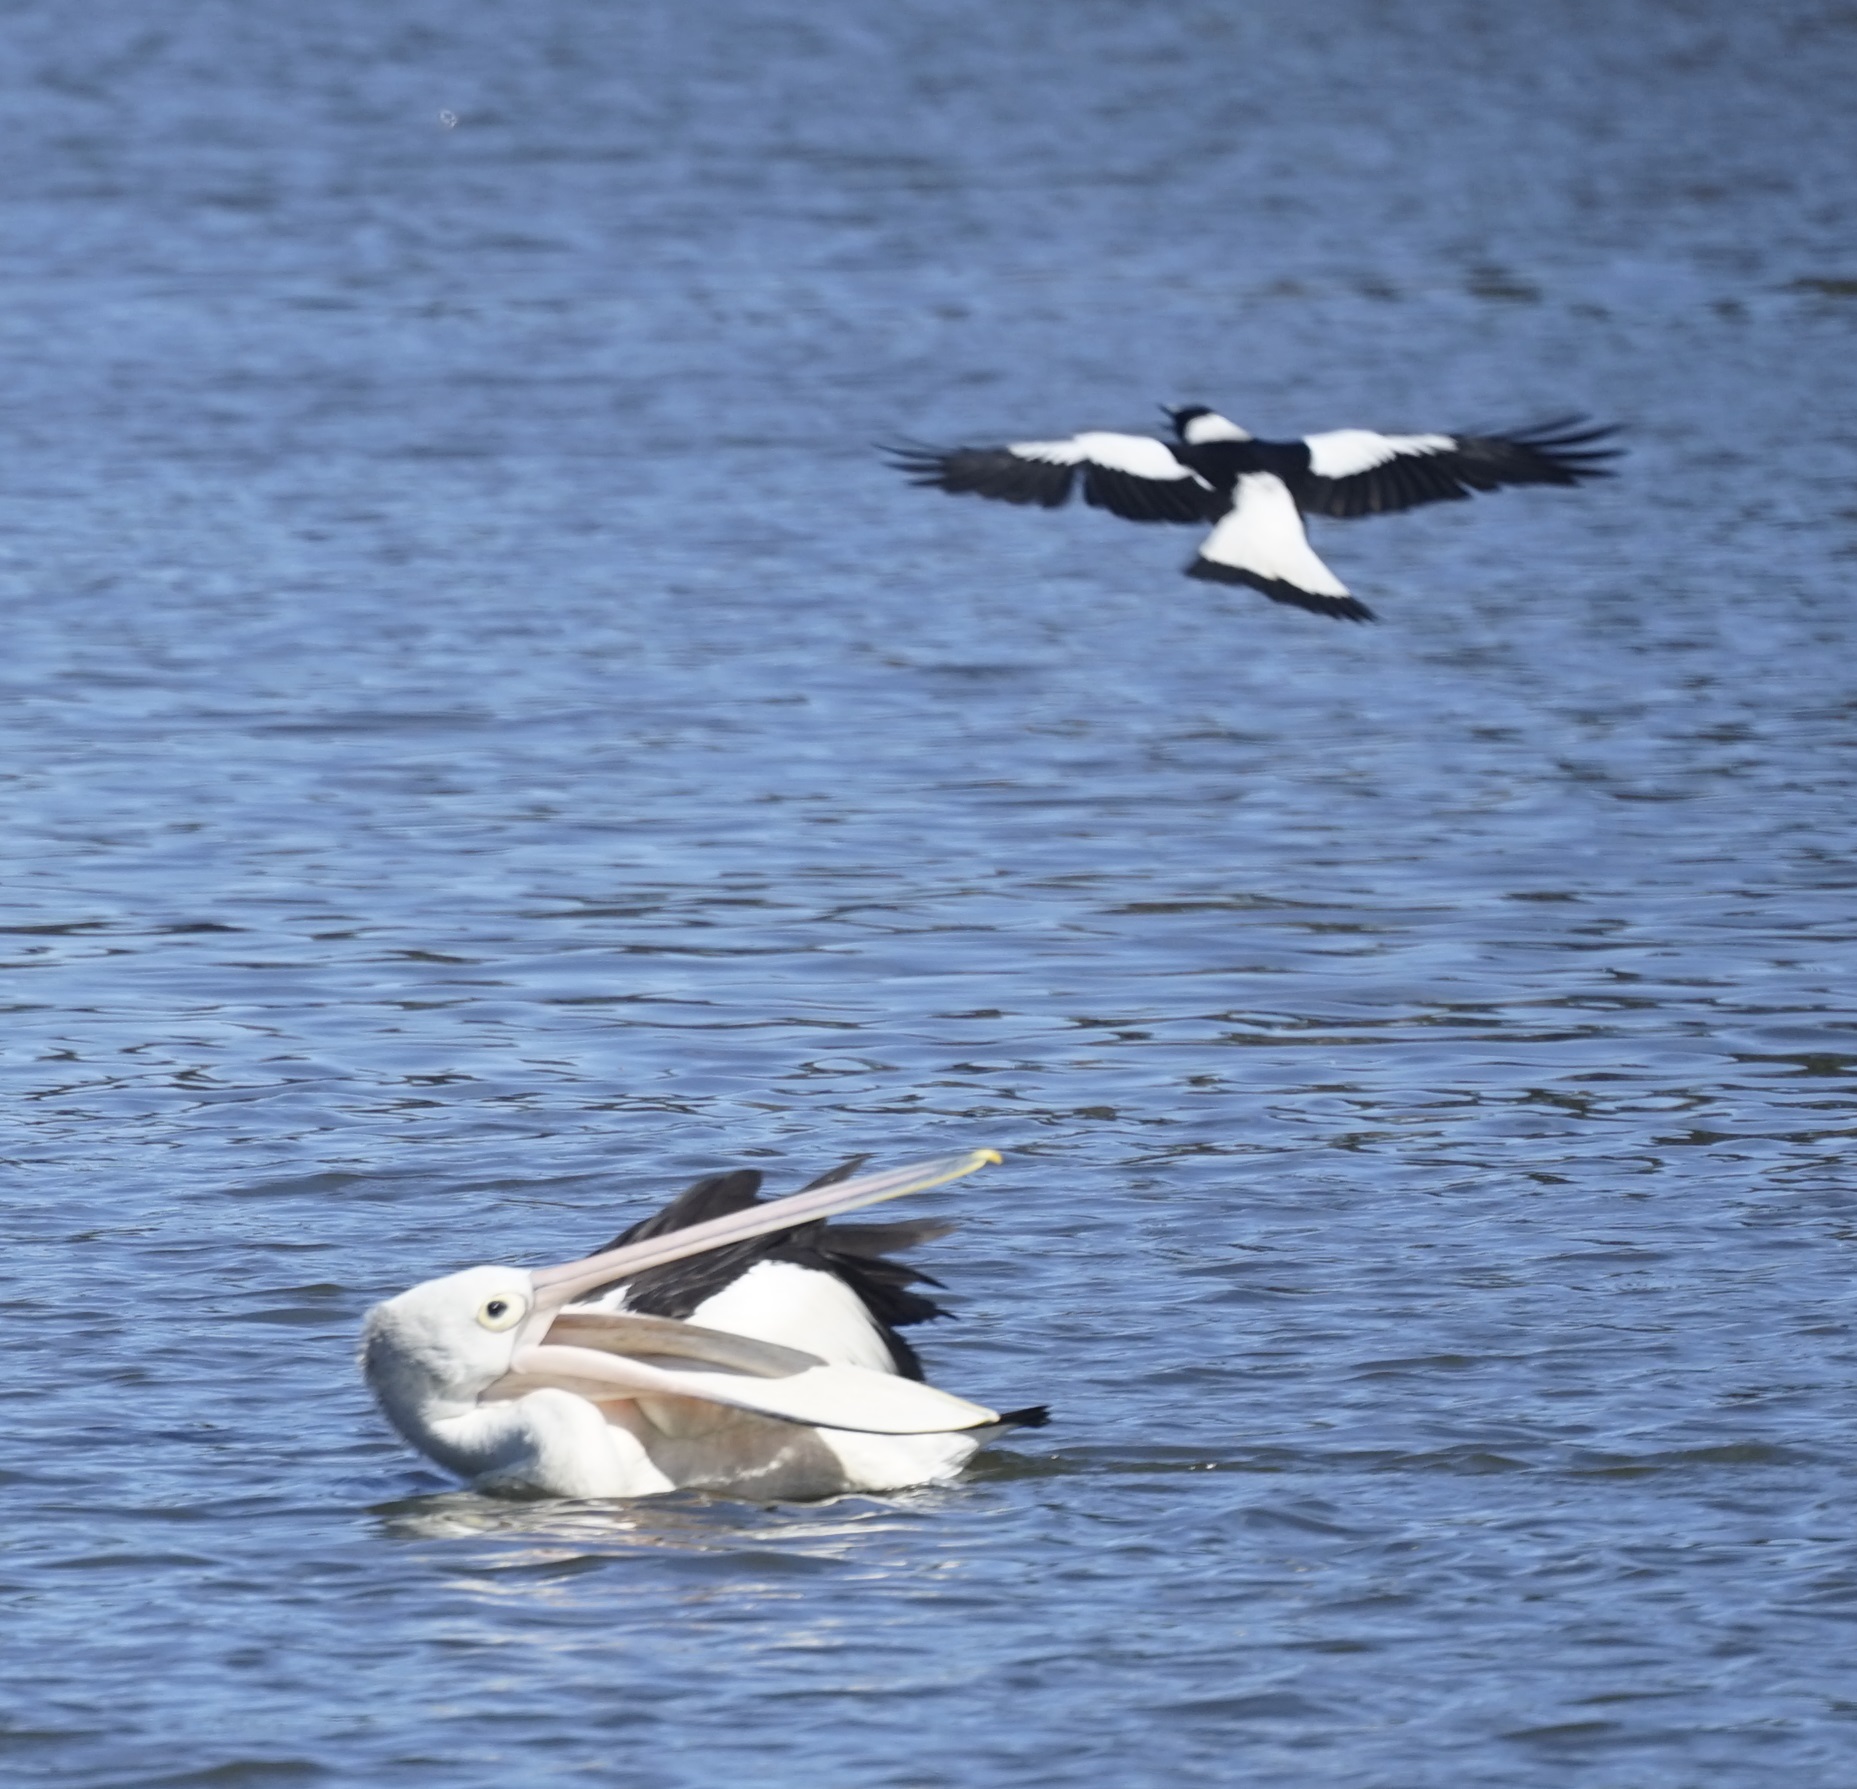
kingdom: Animalia
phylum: Chordata
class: Aves
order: Passeriformes
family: Cracticidae
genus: Gymnorhina
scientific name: Gymnorhina tibicen
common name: Australian magpie
